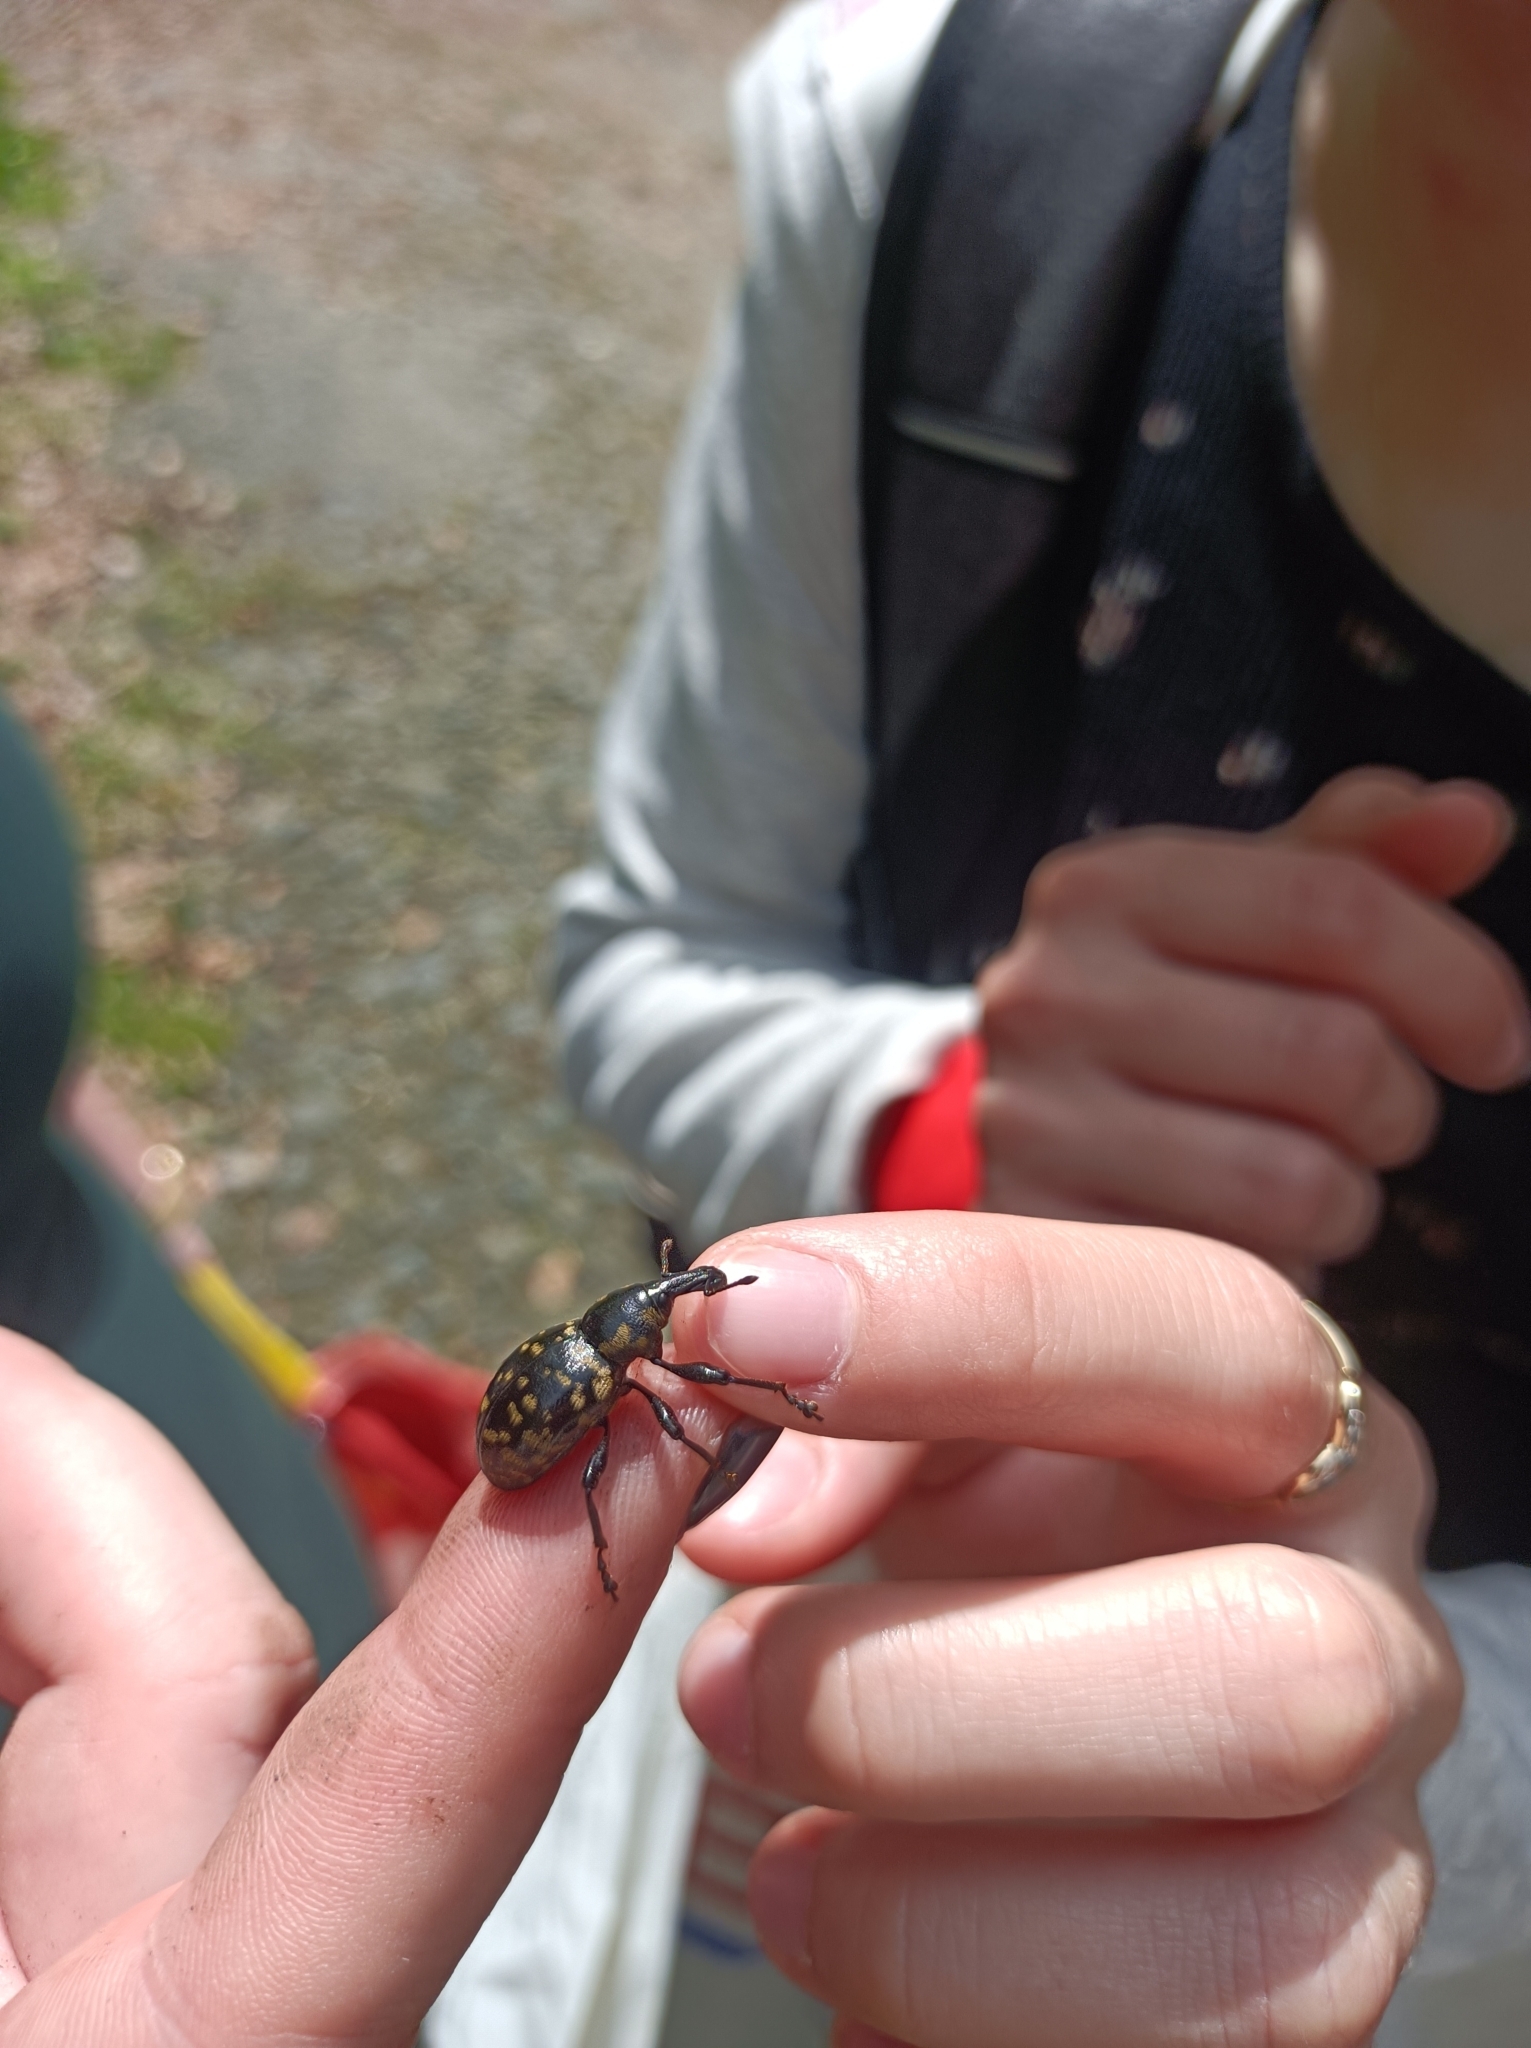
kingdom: Animalia
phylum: Arthropoda
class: Insecta
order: Coleoptera
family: Curculionidae
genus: Liparus
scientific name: Liparus glabrirostris
